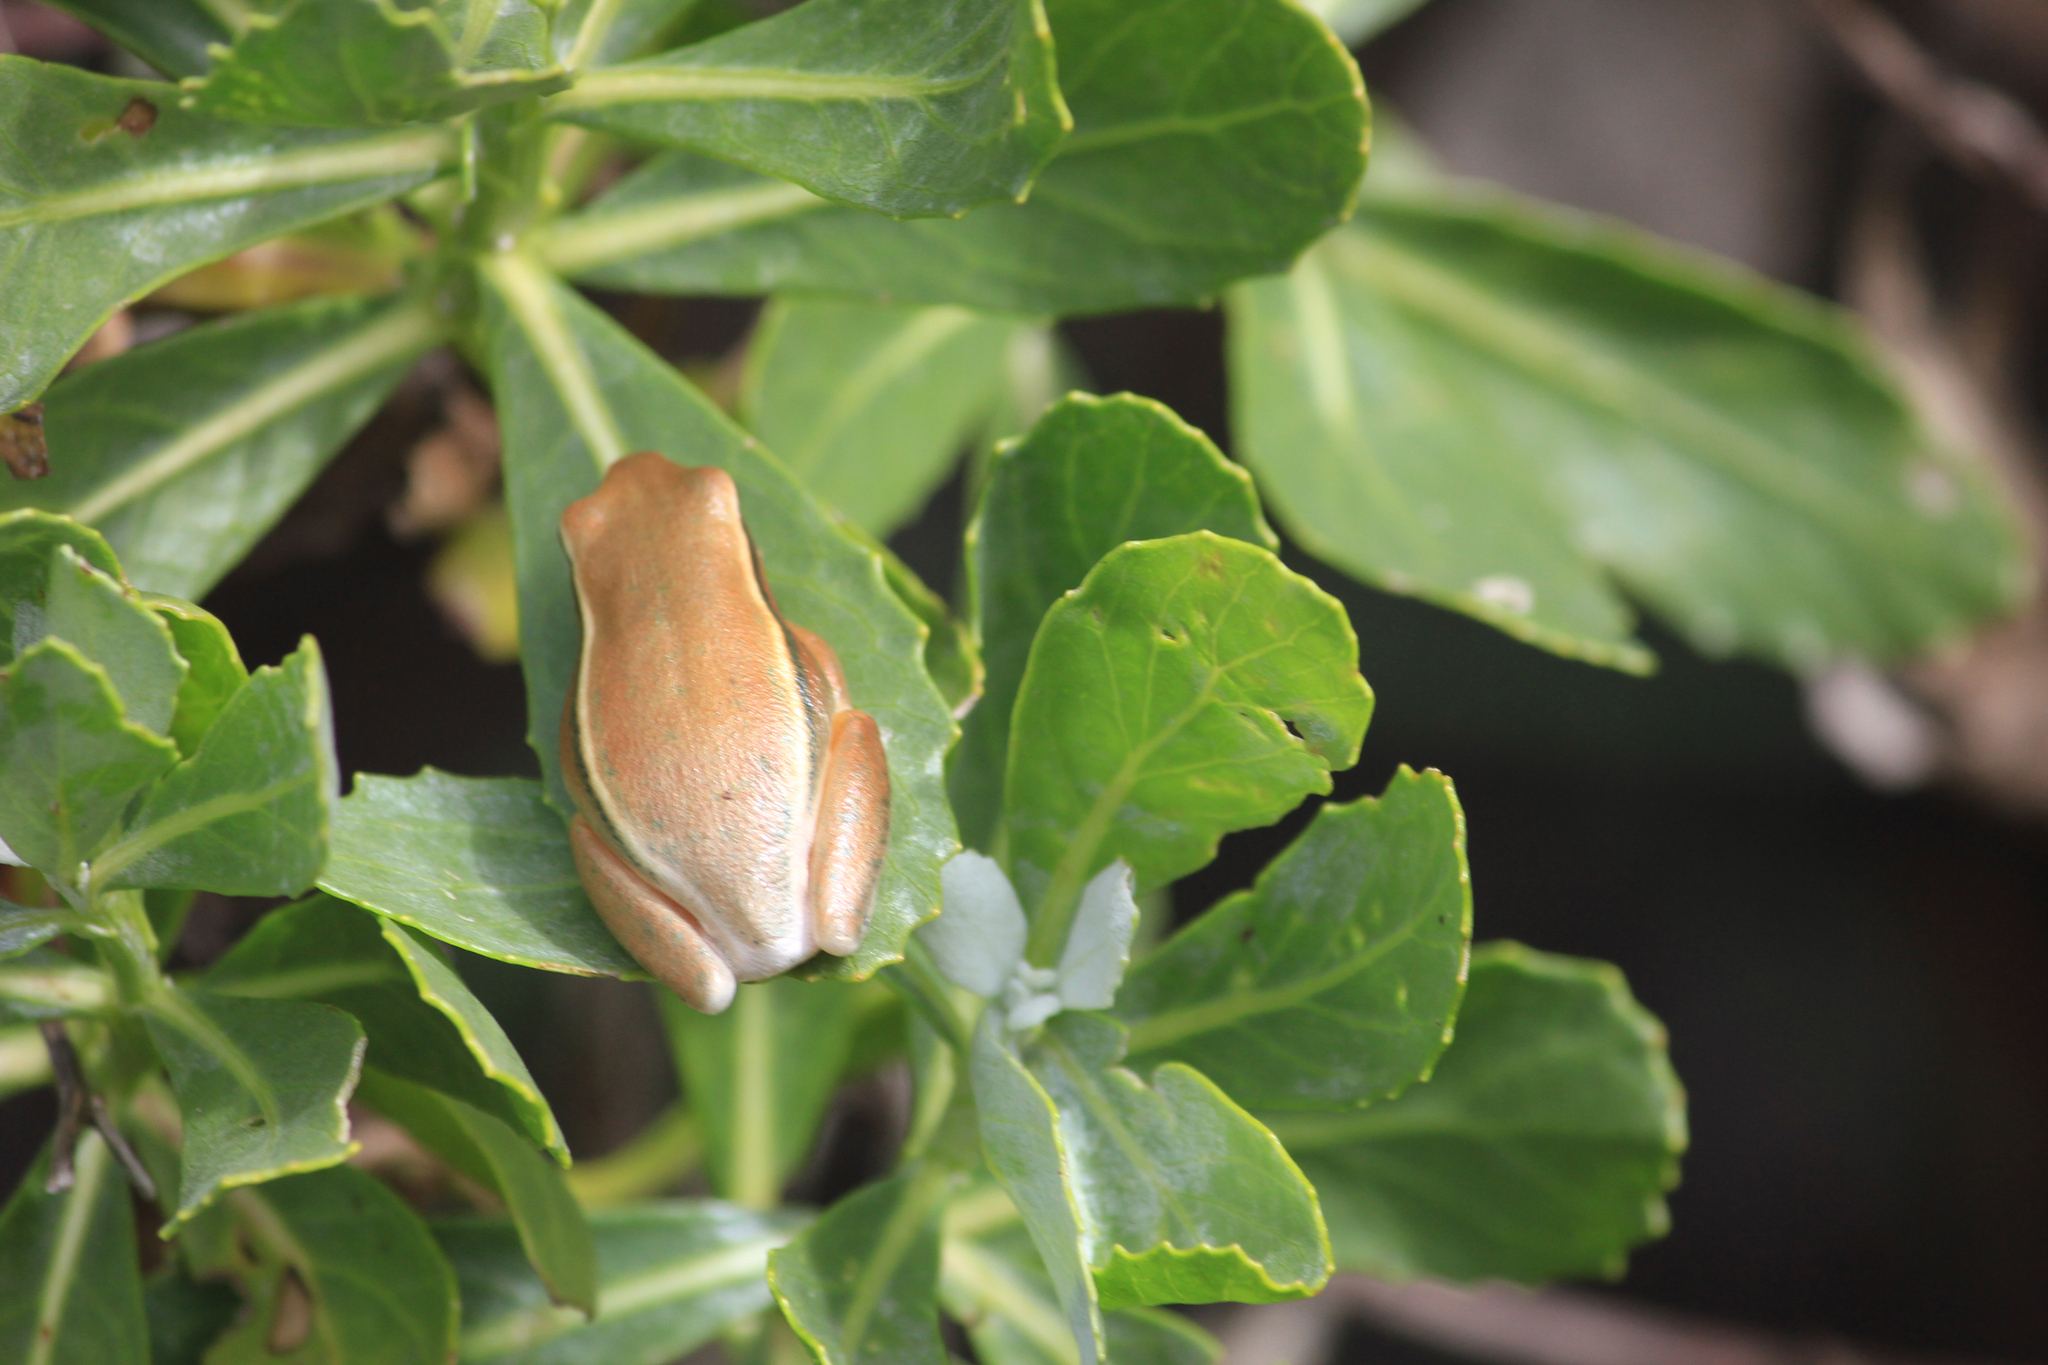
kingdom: Animalia
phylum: Chordata
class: Amphibia
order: Anura
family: Hyperoliidae
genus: Hyperolius
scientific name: Hyperolius horstockii
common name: Arum lily frog
